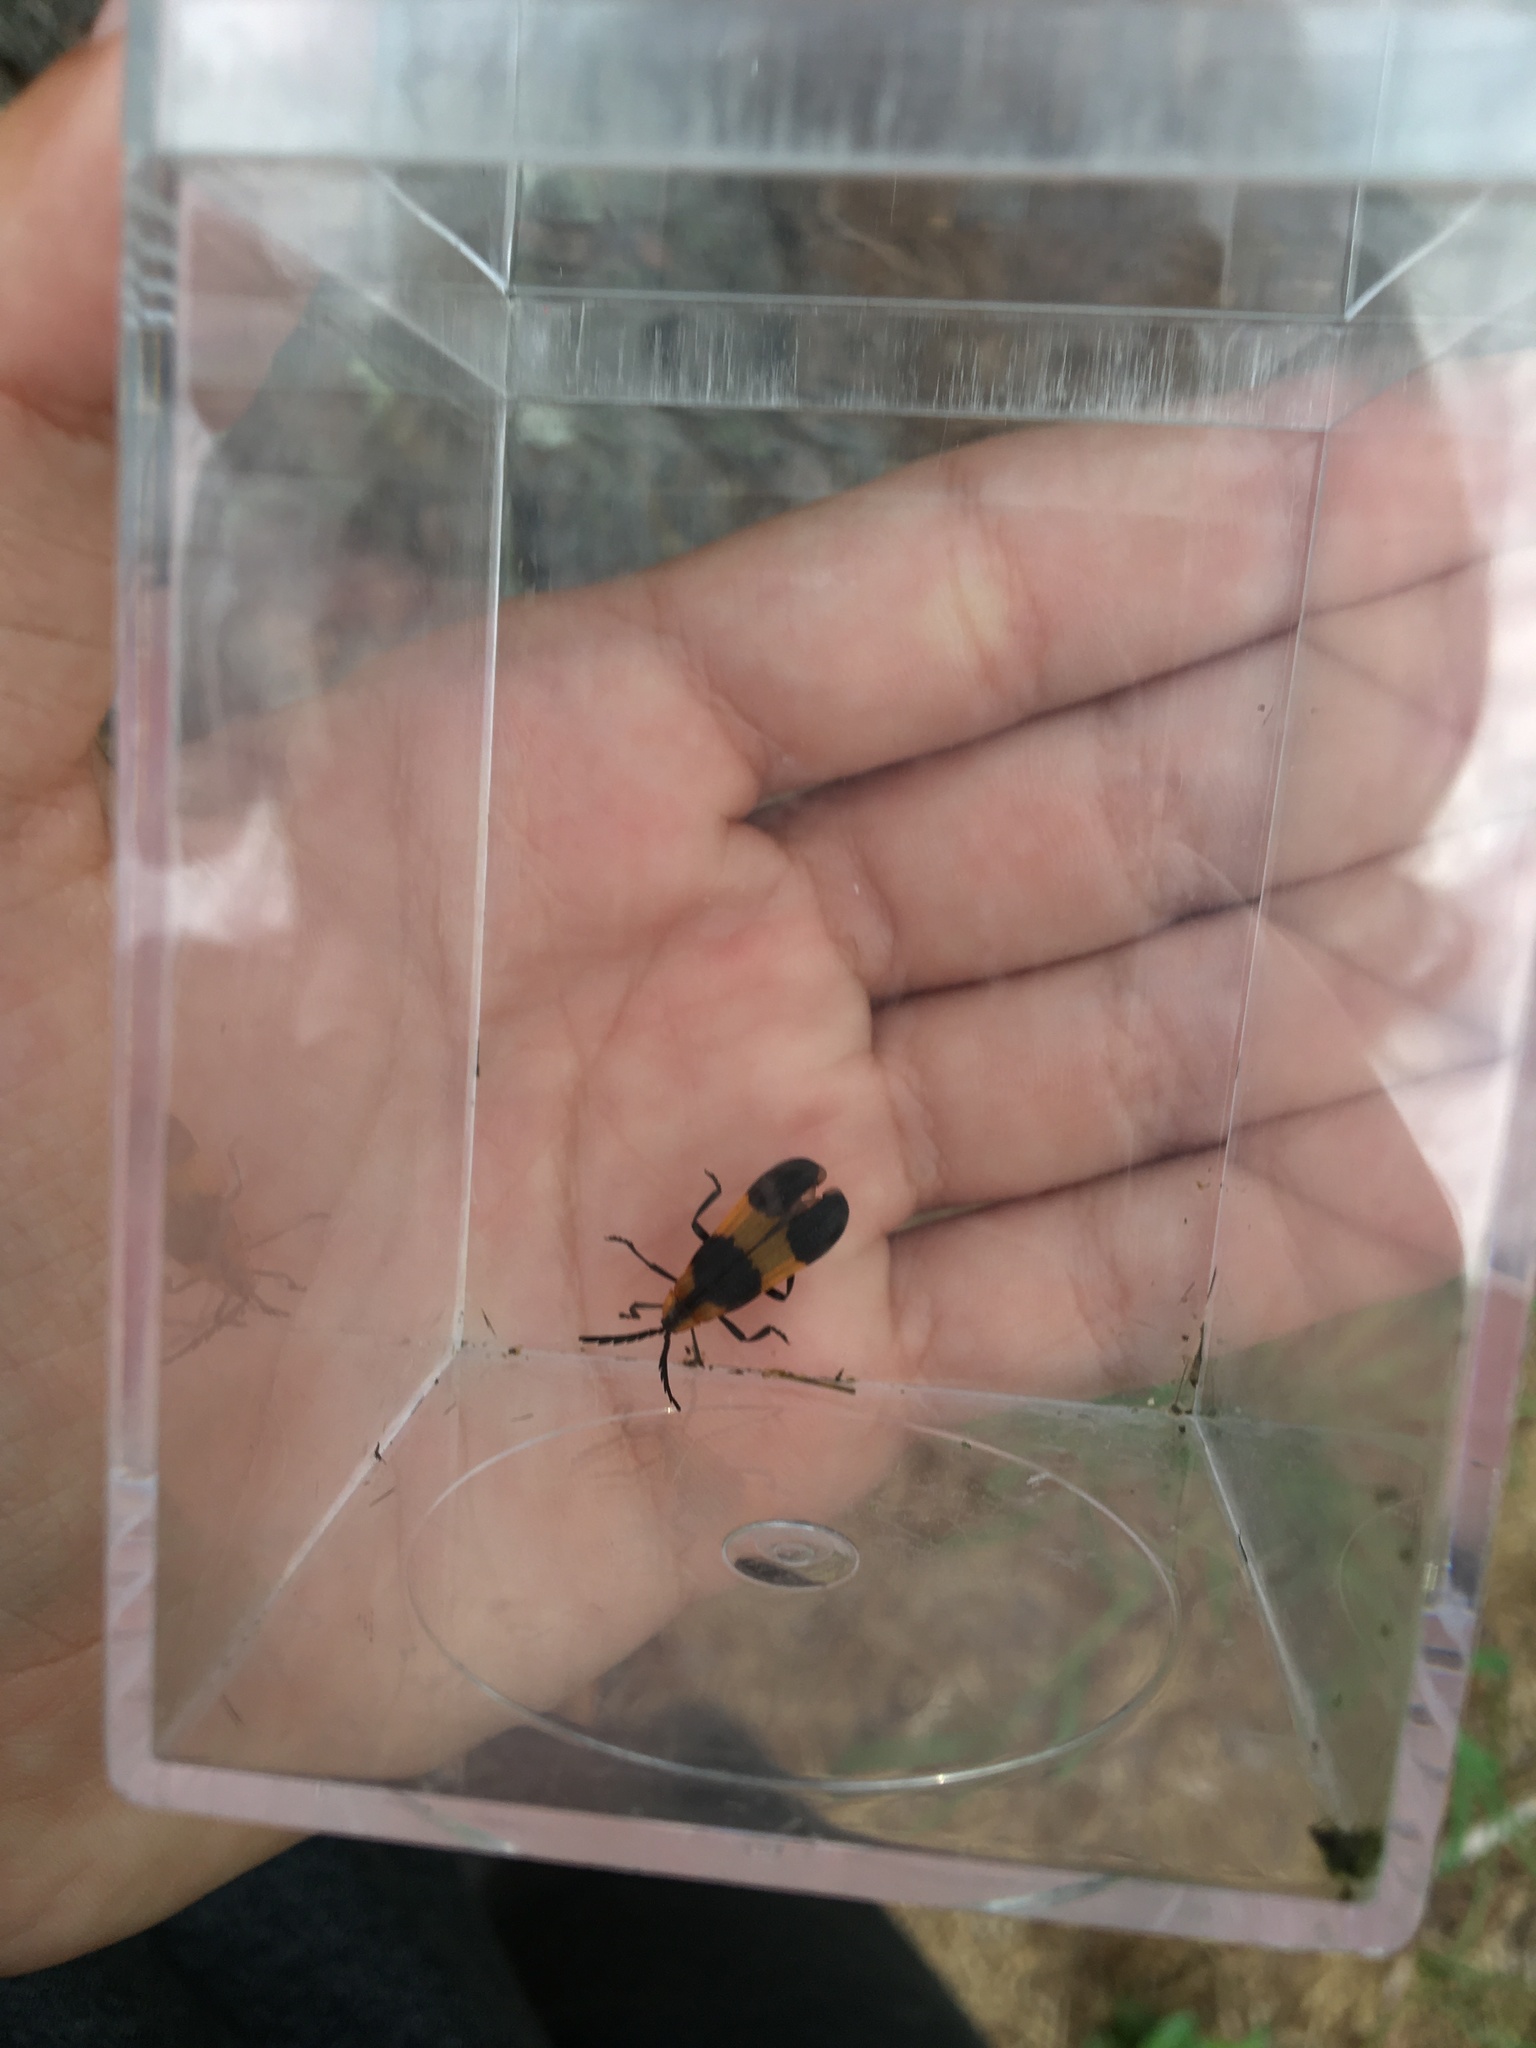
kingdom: Animalia
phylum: Arthropoda
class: Insecta
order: Coleoptera
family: Lycidae
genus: Calopteron
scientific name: Calopteron reticulatum
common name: Banded net-winged beetle
